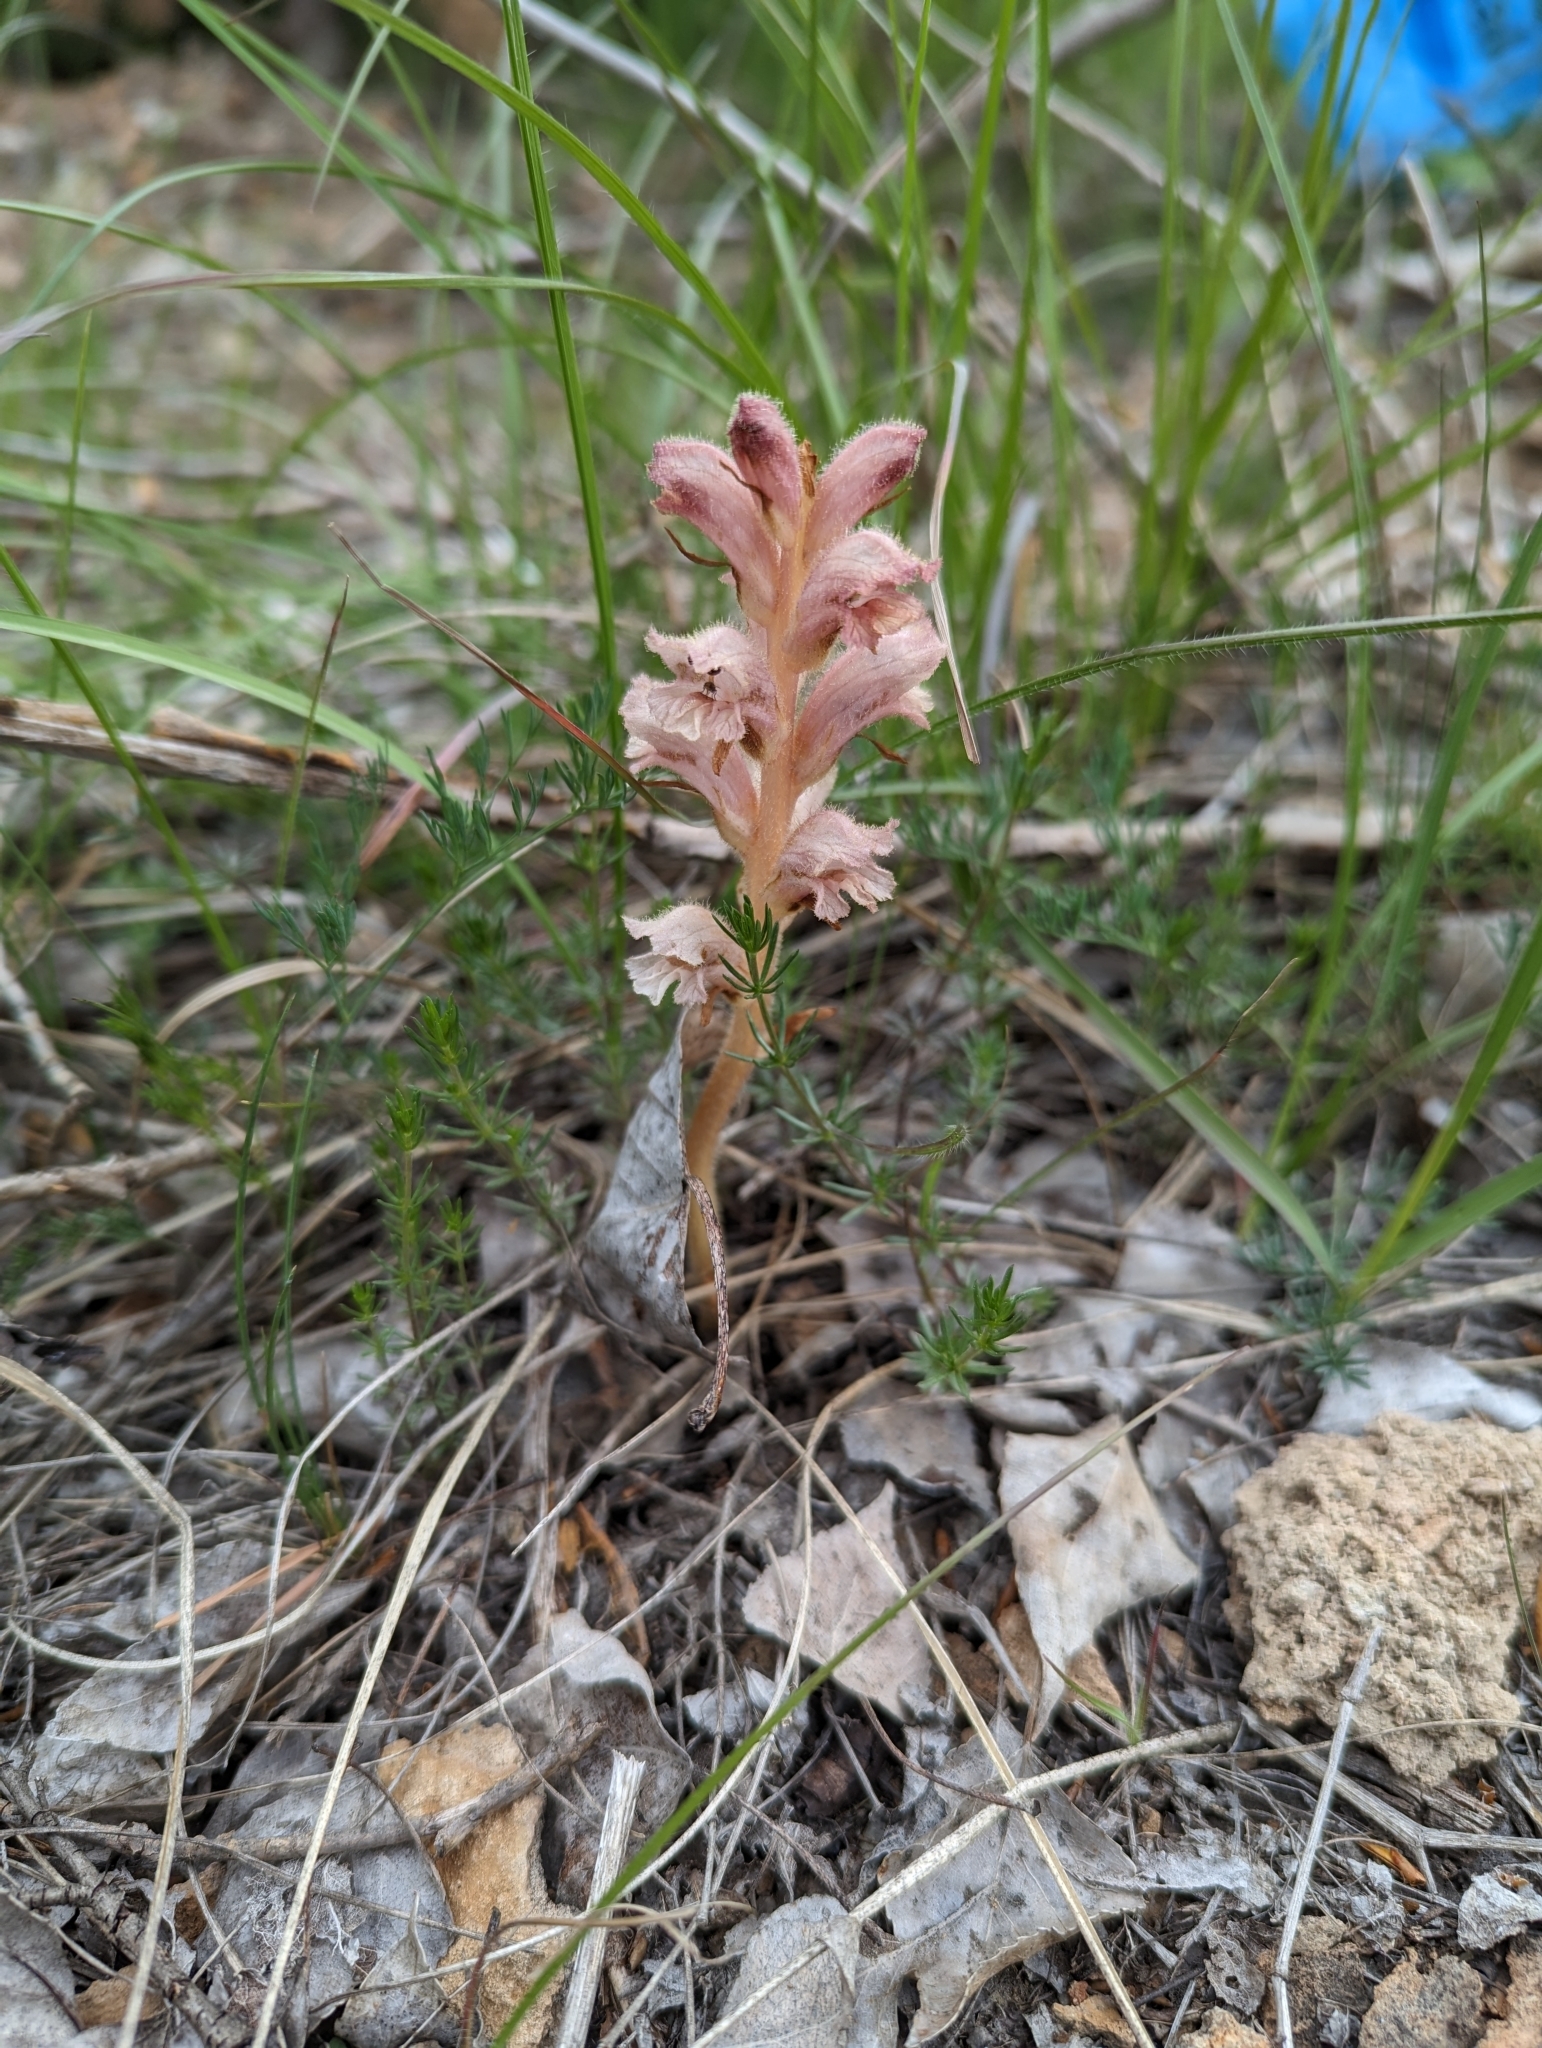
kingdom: Plantae
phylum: Tracheophyta
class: Magnoliopsida
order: Lamiales
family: Orobanchaceae
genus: Orobanche
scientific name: Orobanche caryophyllacea
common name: Bedstraw broomrape
